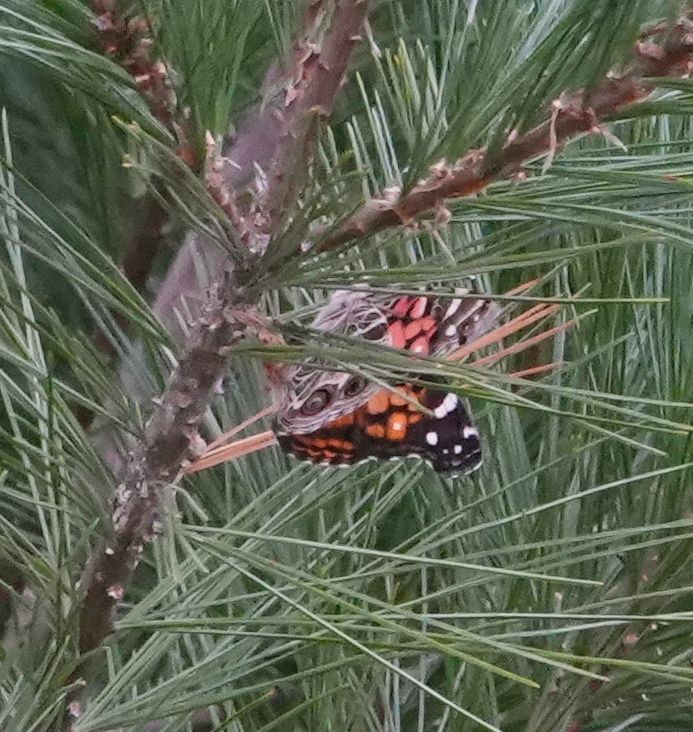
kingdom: Animalia
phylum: Arthropoda
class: Insecta
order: Lepidoptera
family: Nymphalidae
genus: Vanessa
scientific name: Vanessa virginiensis
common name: American lady
